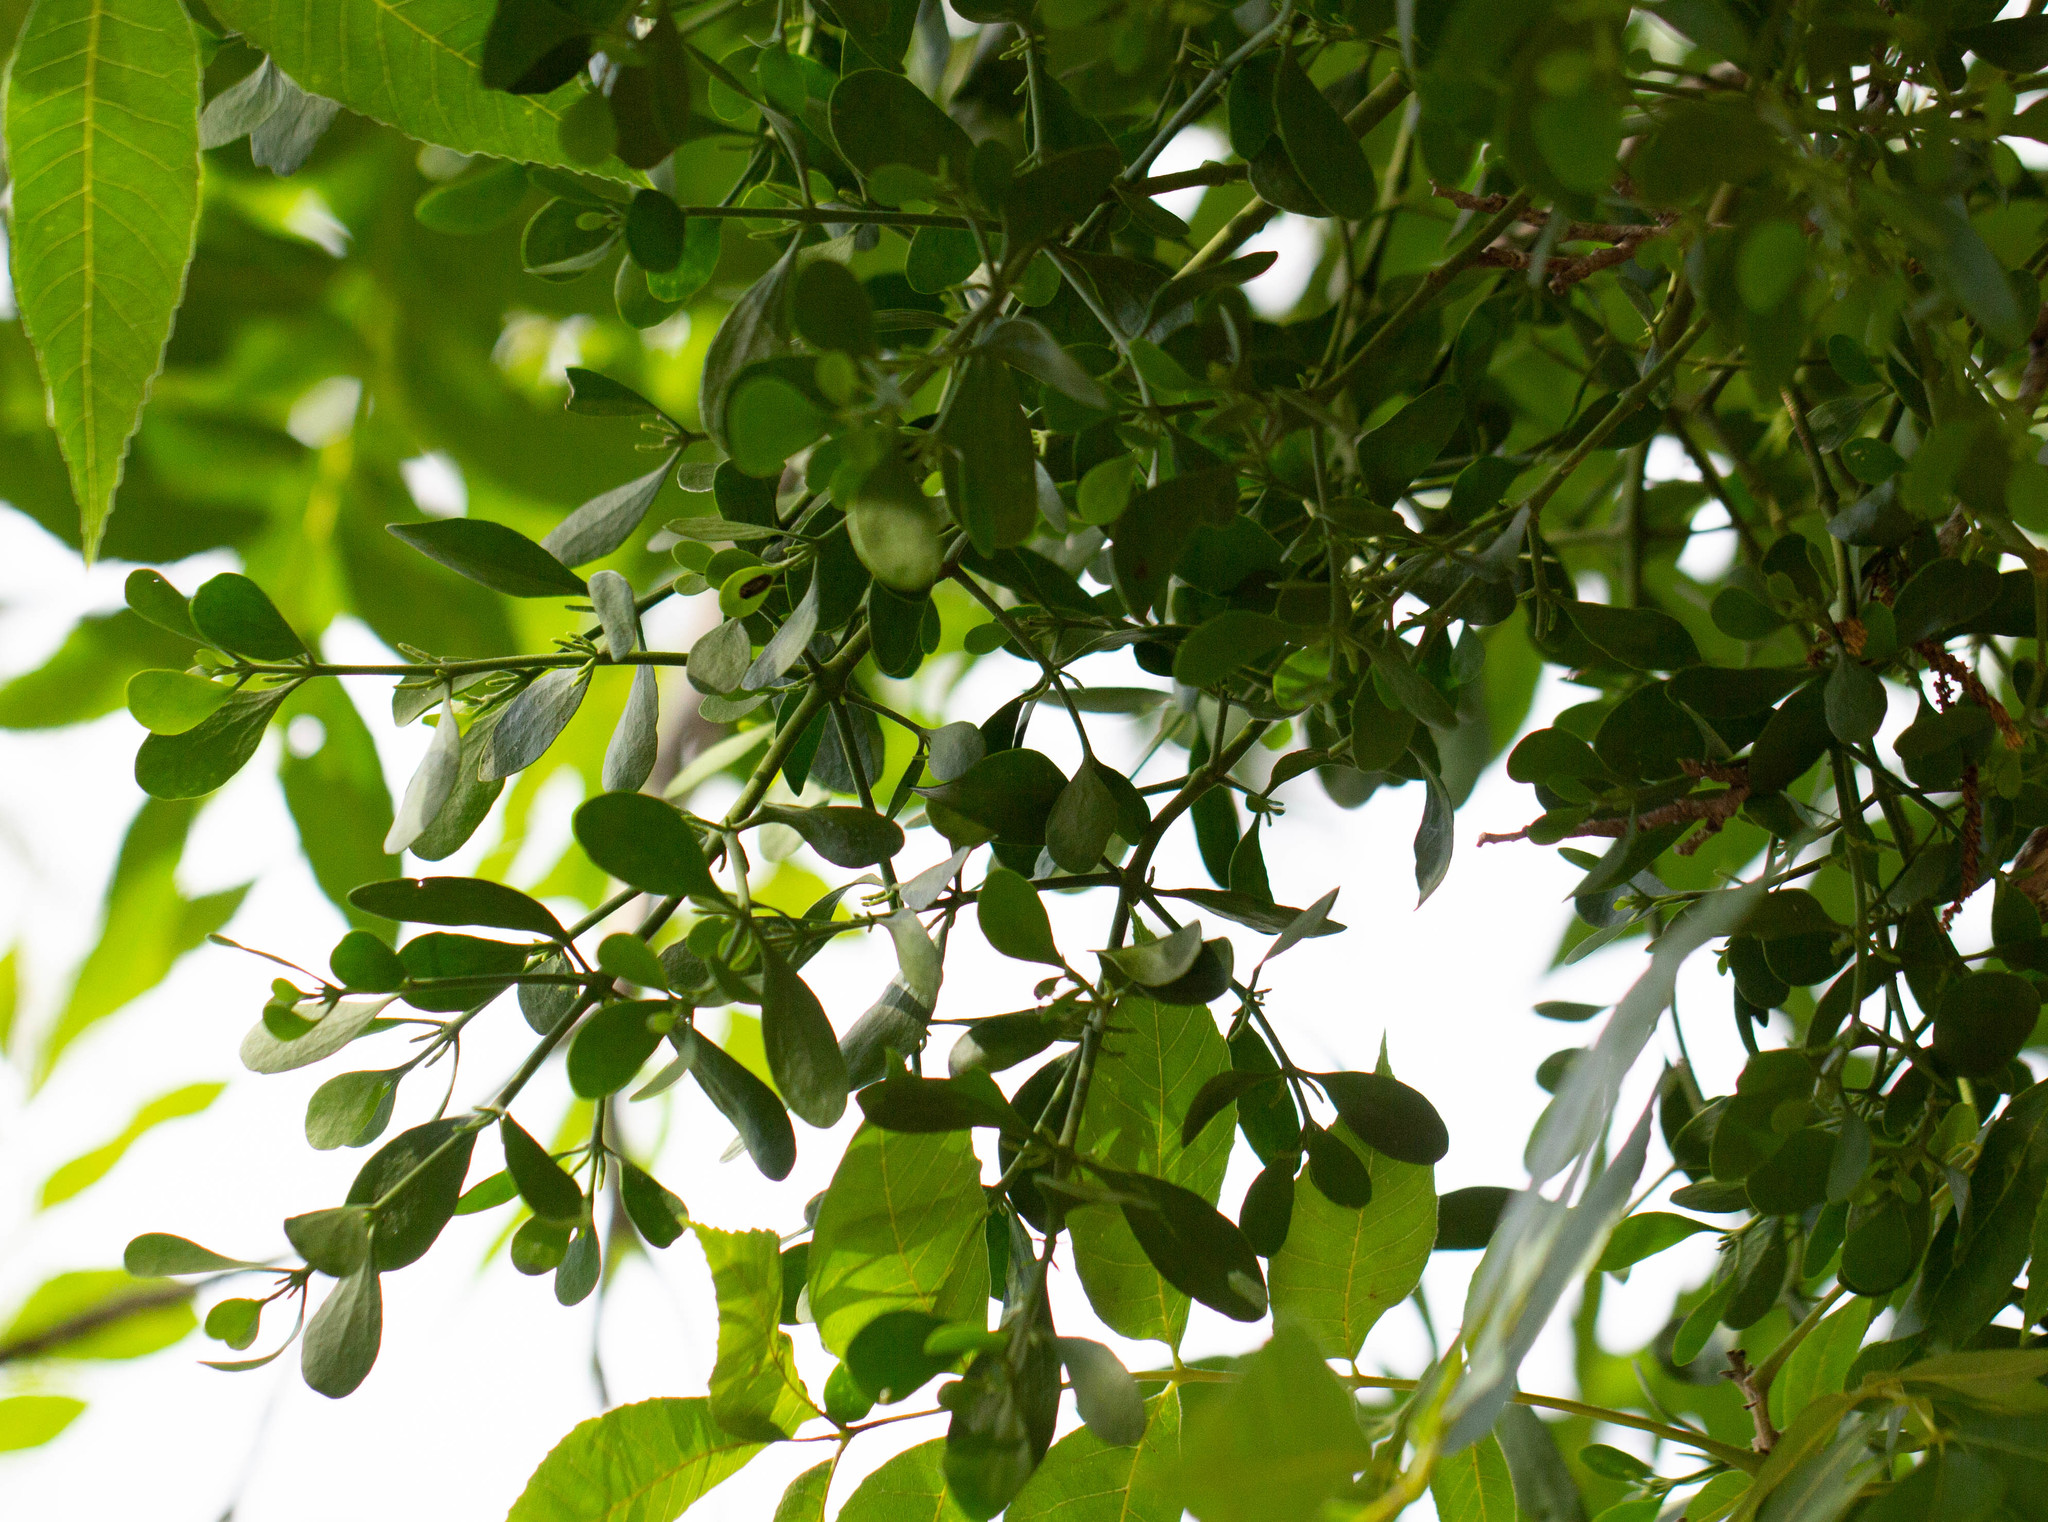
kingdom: Plantae
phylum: Tracheophyta
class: Magnoliopsida
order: Santalales
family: Viscaceae
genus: Phoradendron
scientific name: Phoradendron leucarpum
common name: Pacific mistletoe
